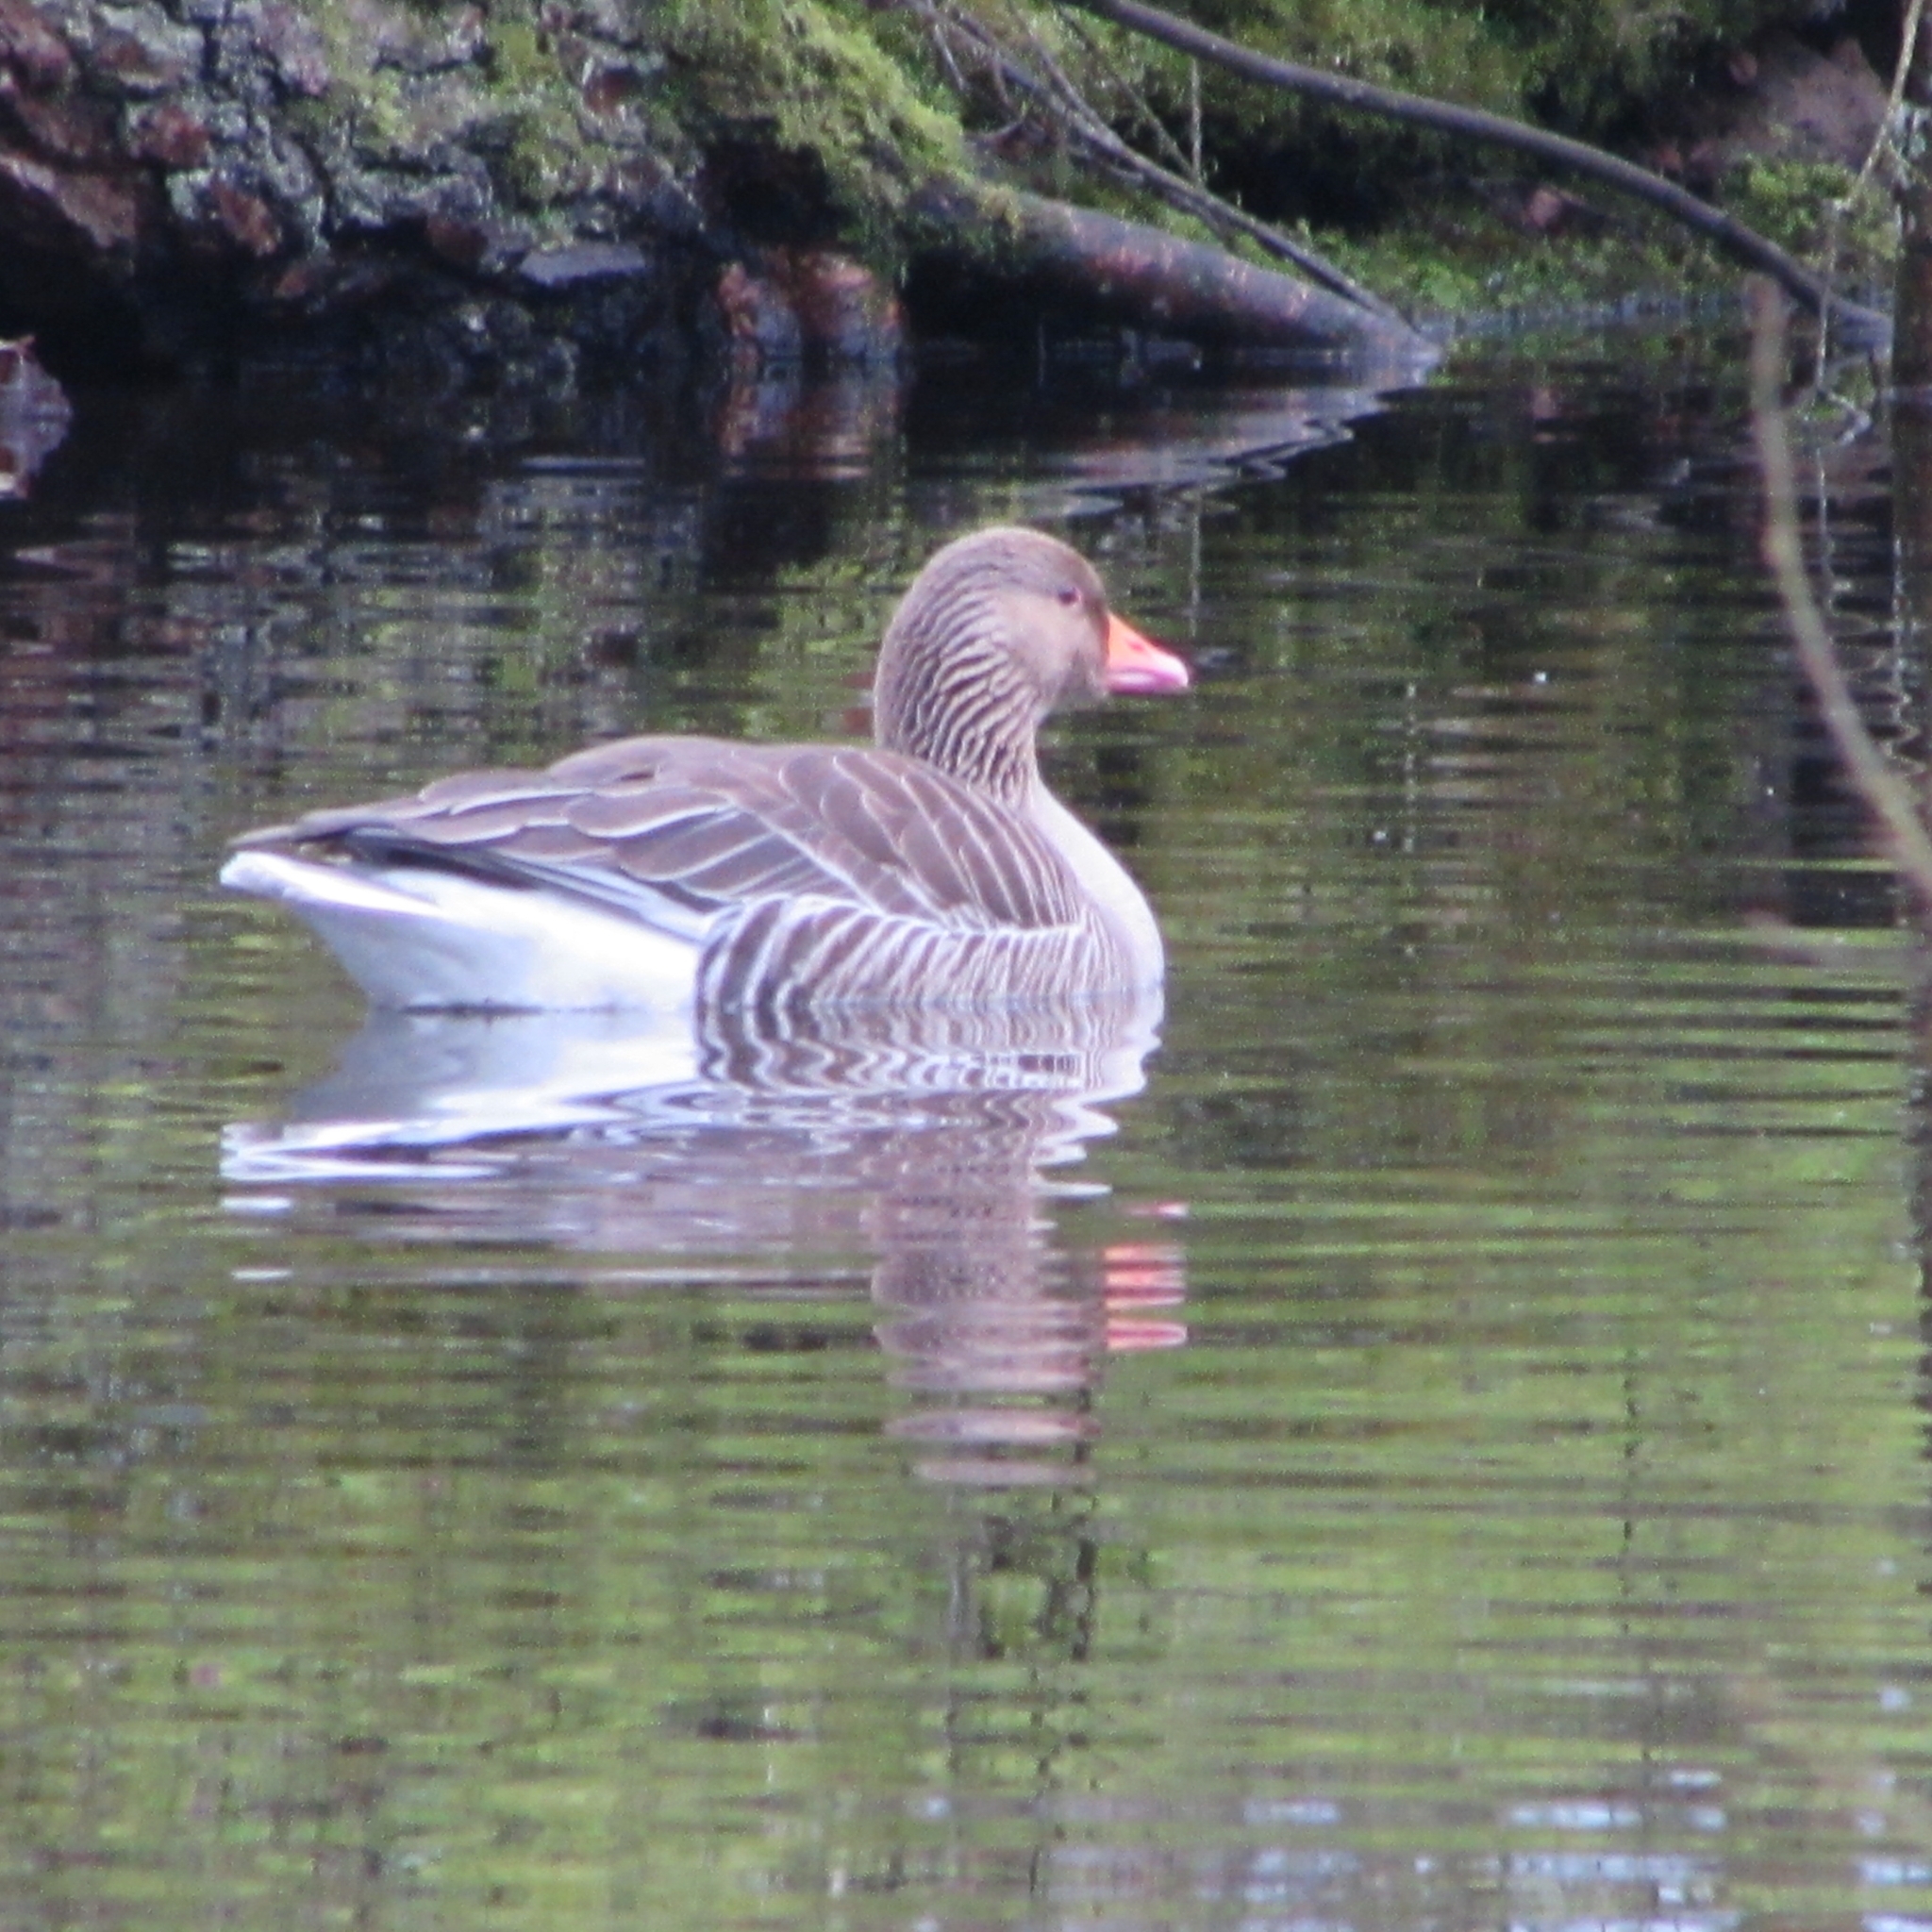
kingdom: Animalia
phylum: Chordata
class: Aves
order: Anseriformes
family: Anatidae
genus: Anser
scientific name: Anser anser
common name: Greylag goose
